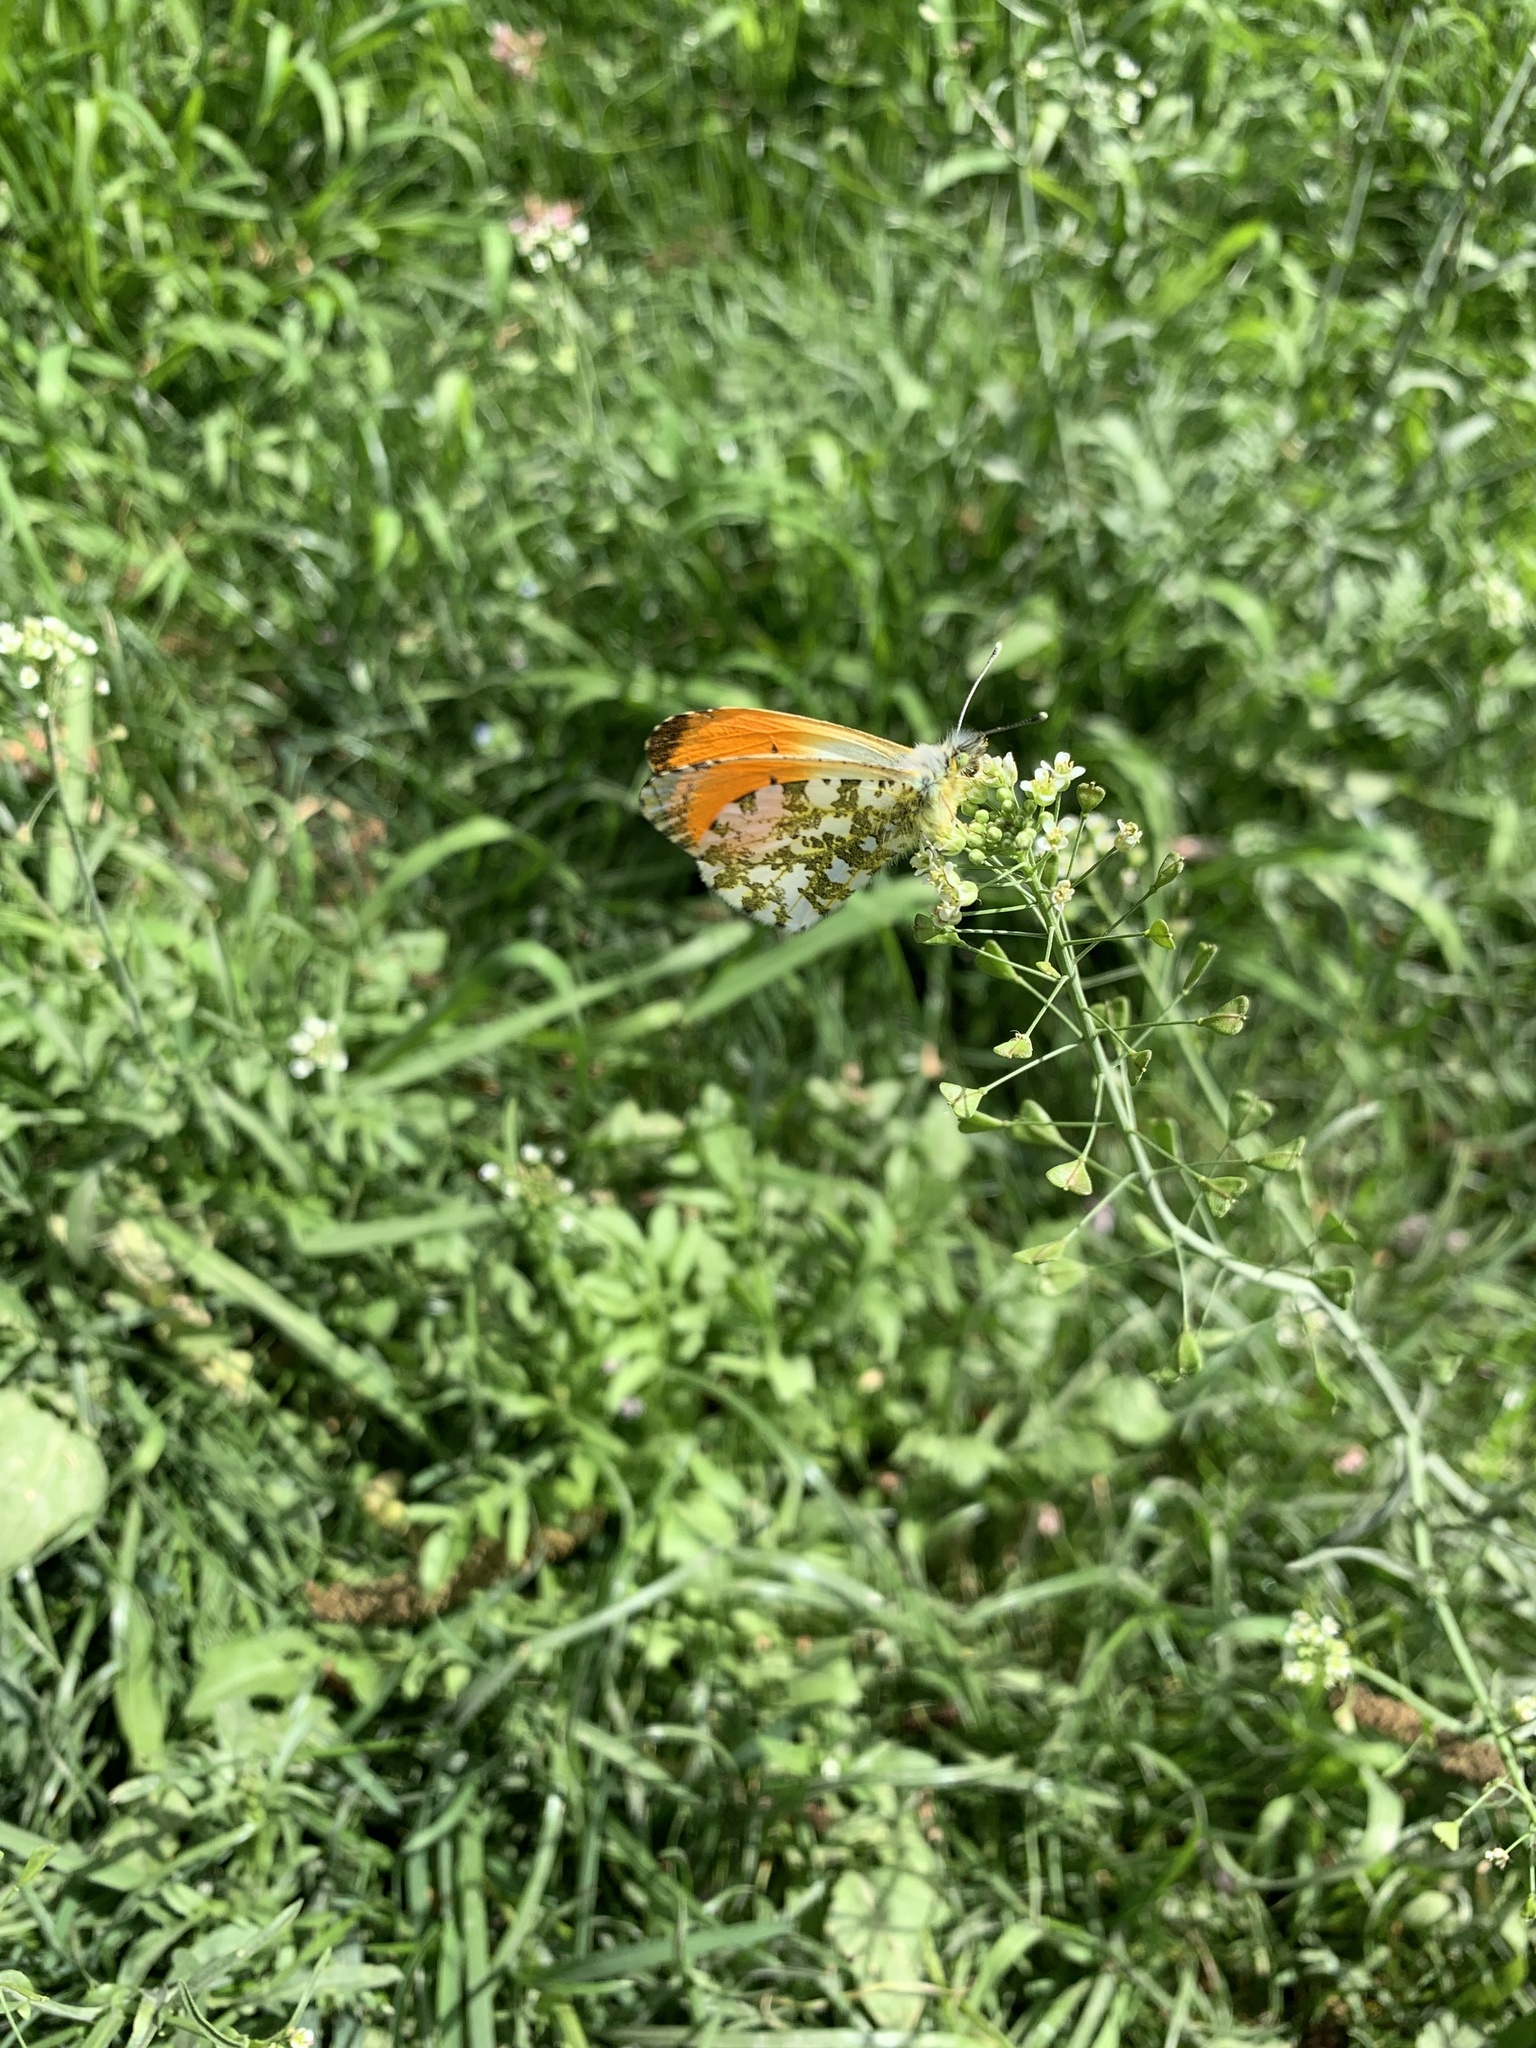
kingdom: Animalia
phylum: Arthropoda
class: Insecta
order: Lepidoptera
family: Pieridae
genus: Anthocharis
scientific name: Anthocharis cardamines
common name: Orange-tip
